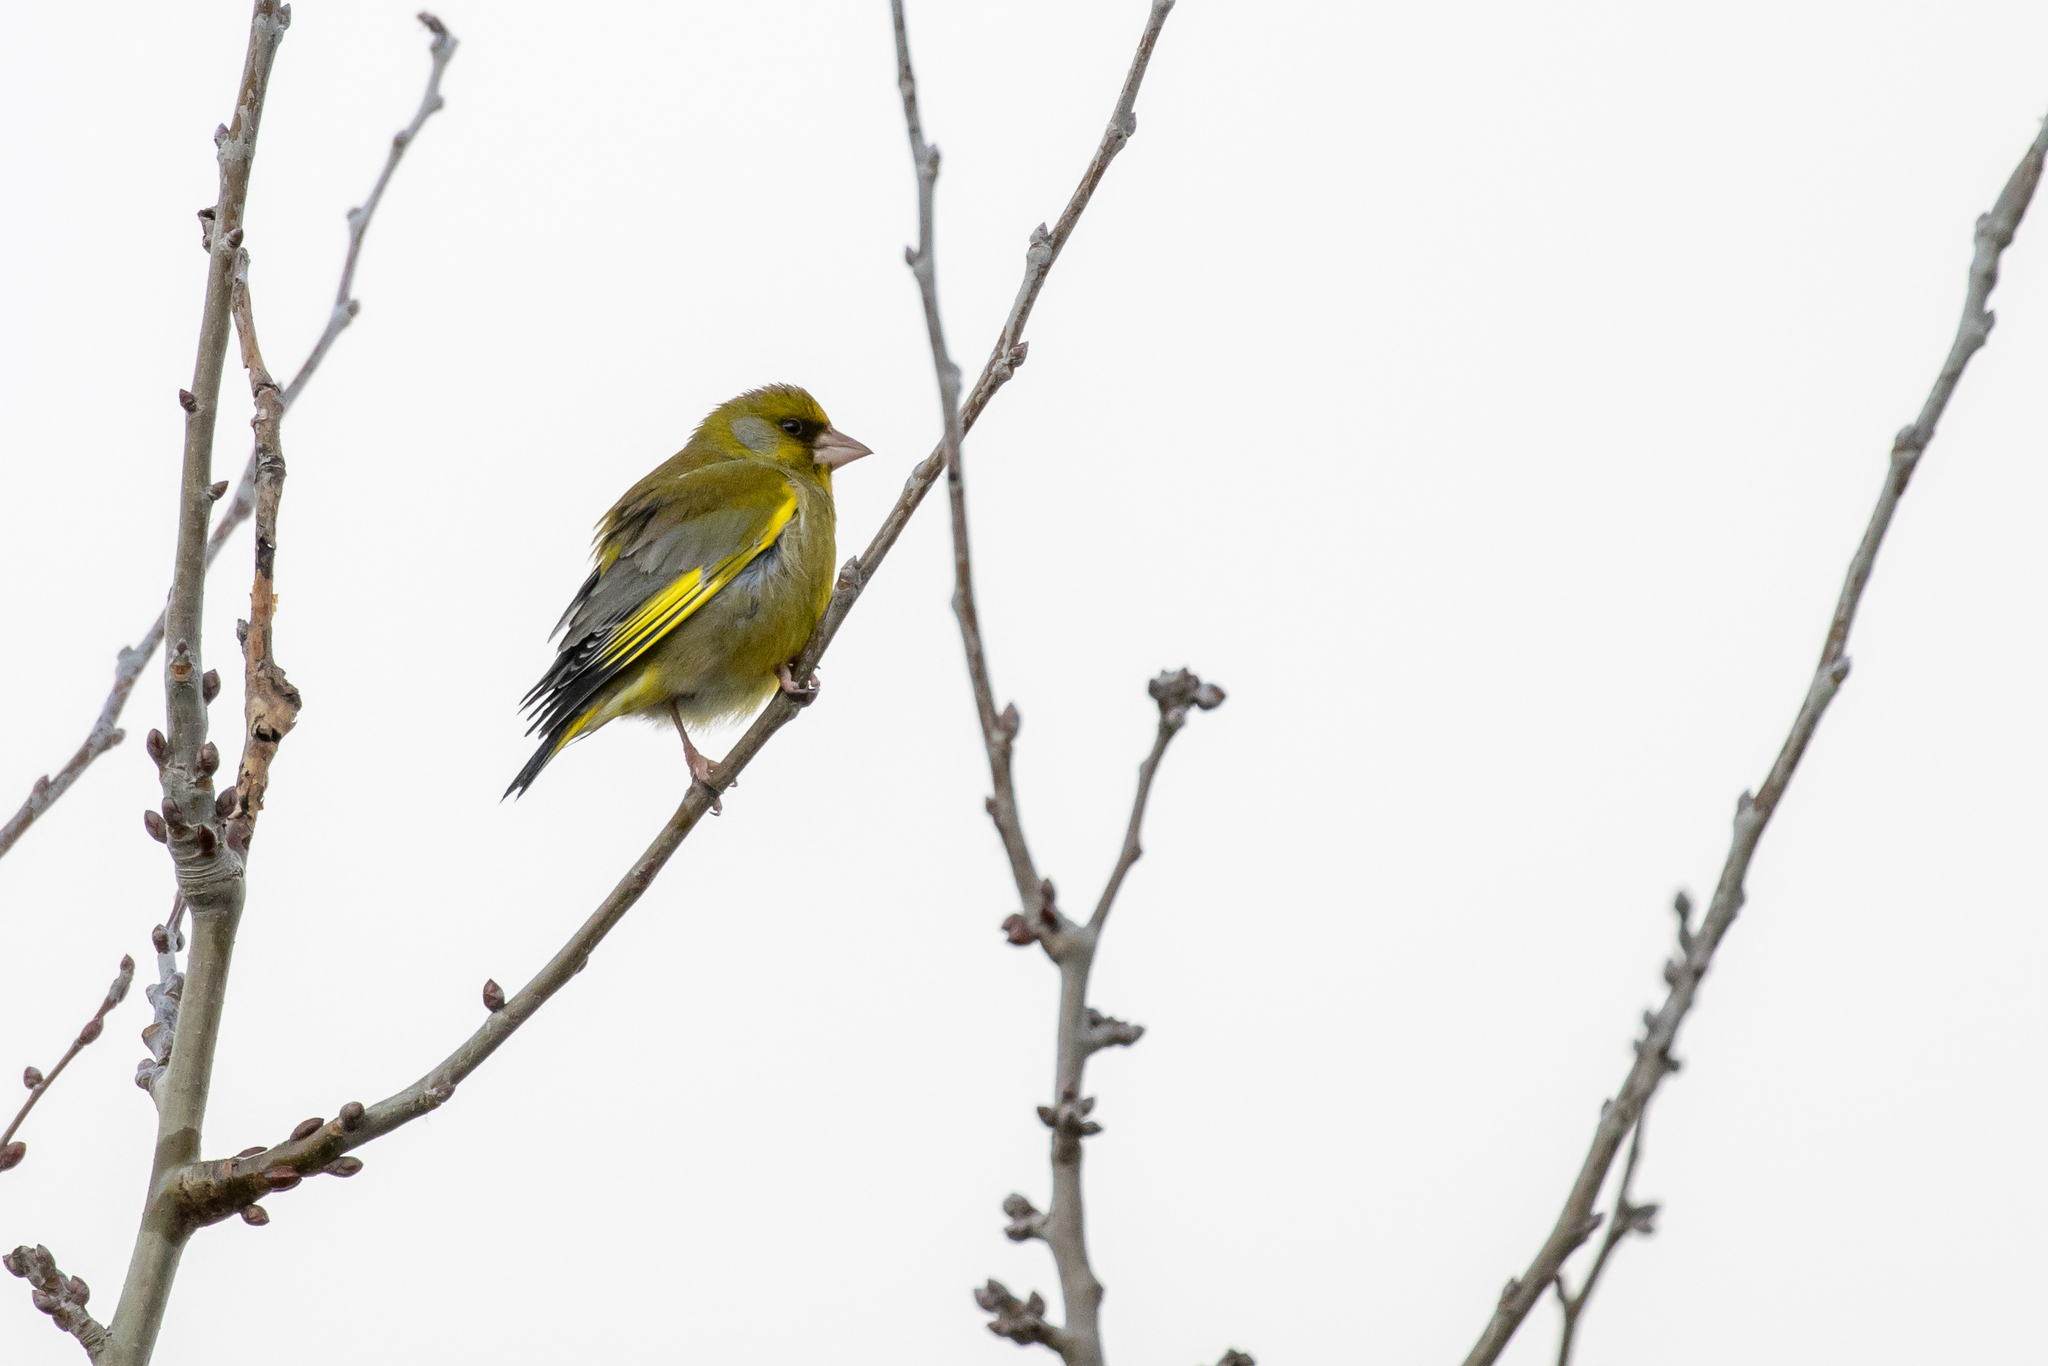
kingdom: Plantae
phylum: Tracheophyta
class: Liliopsida
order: Poales
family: Poaceae
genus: Chloris
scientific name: Chloris chloris
